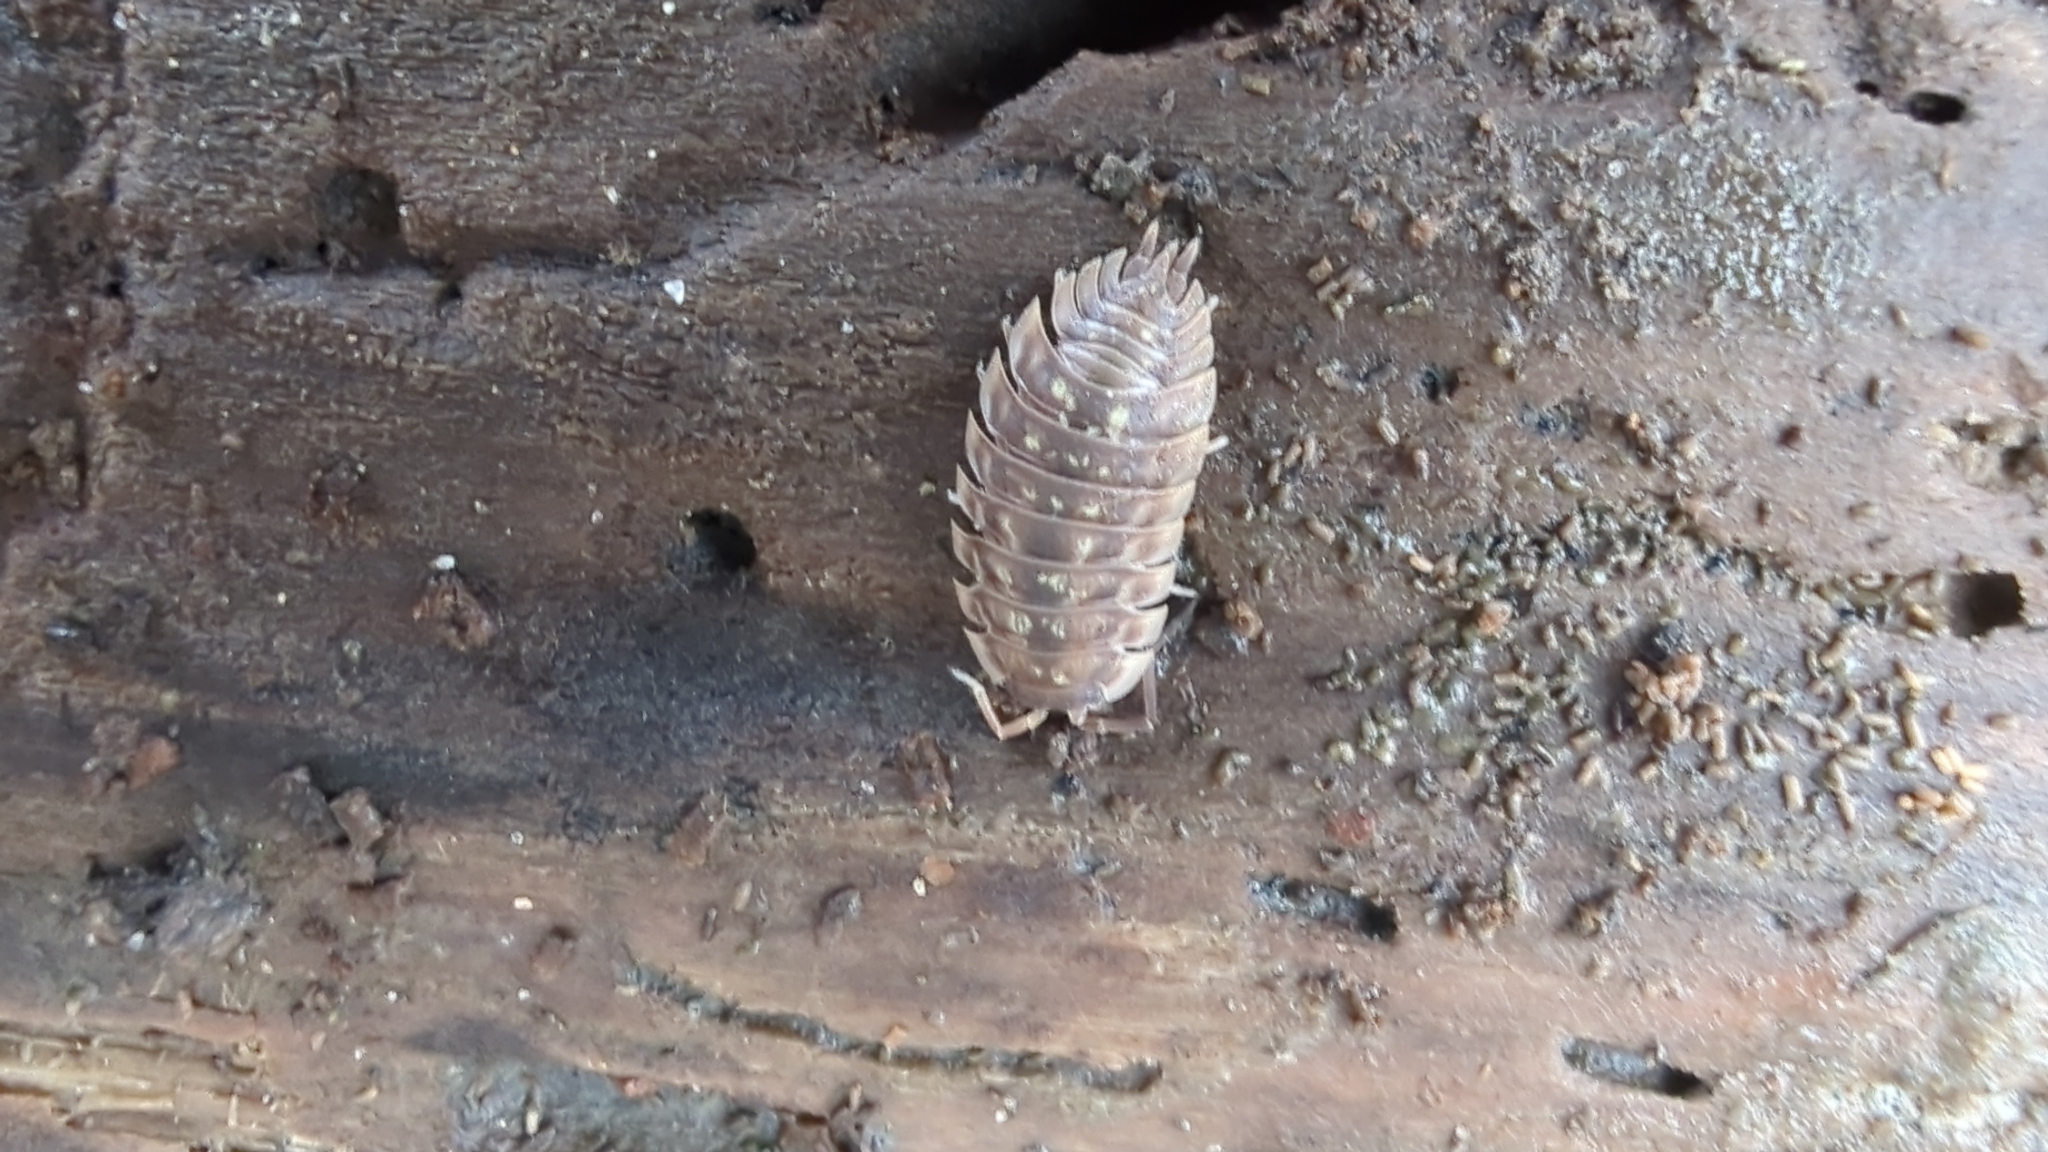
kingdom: Animalia
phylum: Arthropoda
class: Malacostraca
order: Isopoda
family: Oniscidae
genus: Oniscus
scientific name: Oniscus asellus
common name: Common shiny woodlouse
